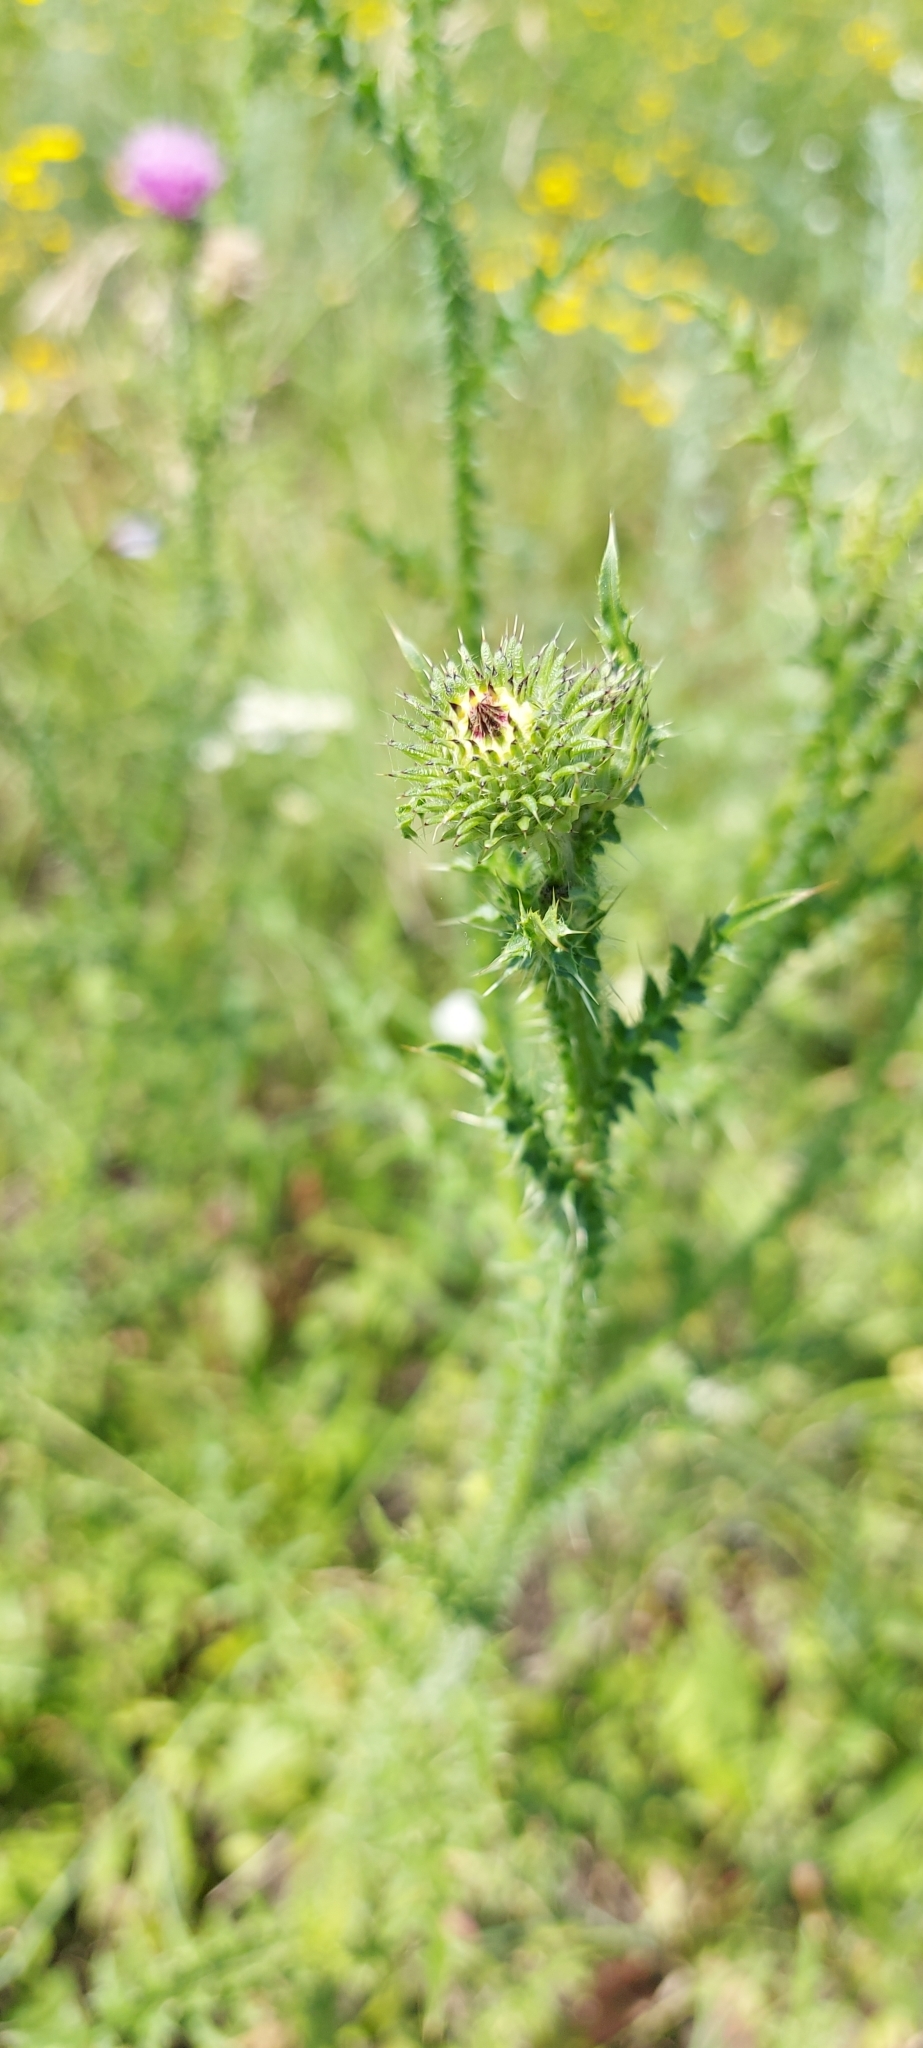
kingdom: Plantae
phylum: Tracheophyta
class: Magnoliopsida
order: Asterales
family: Asteraceae
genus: Carduus
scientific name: Carduus acanthoides
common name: Plumeless thistle
